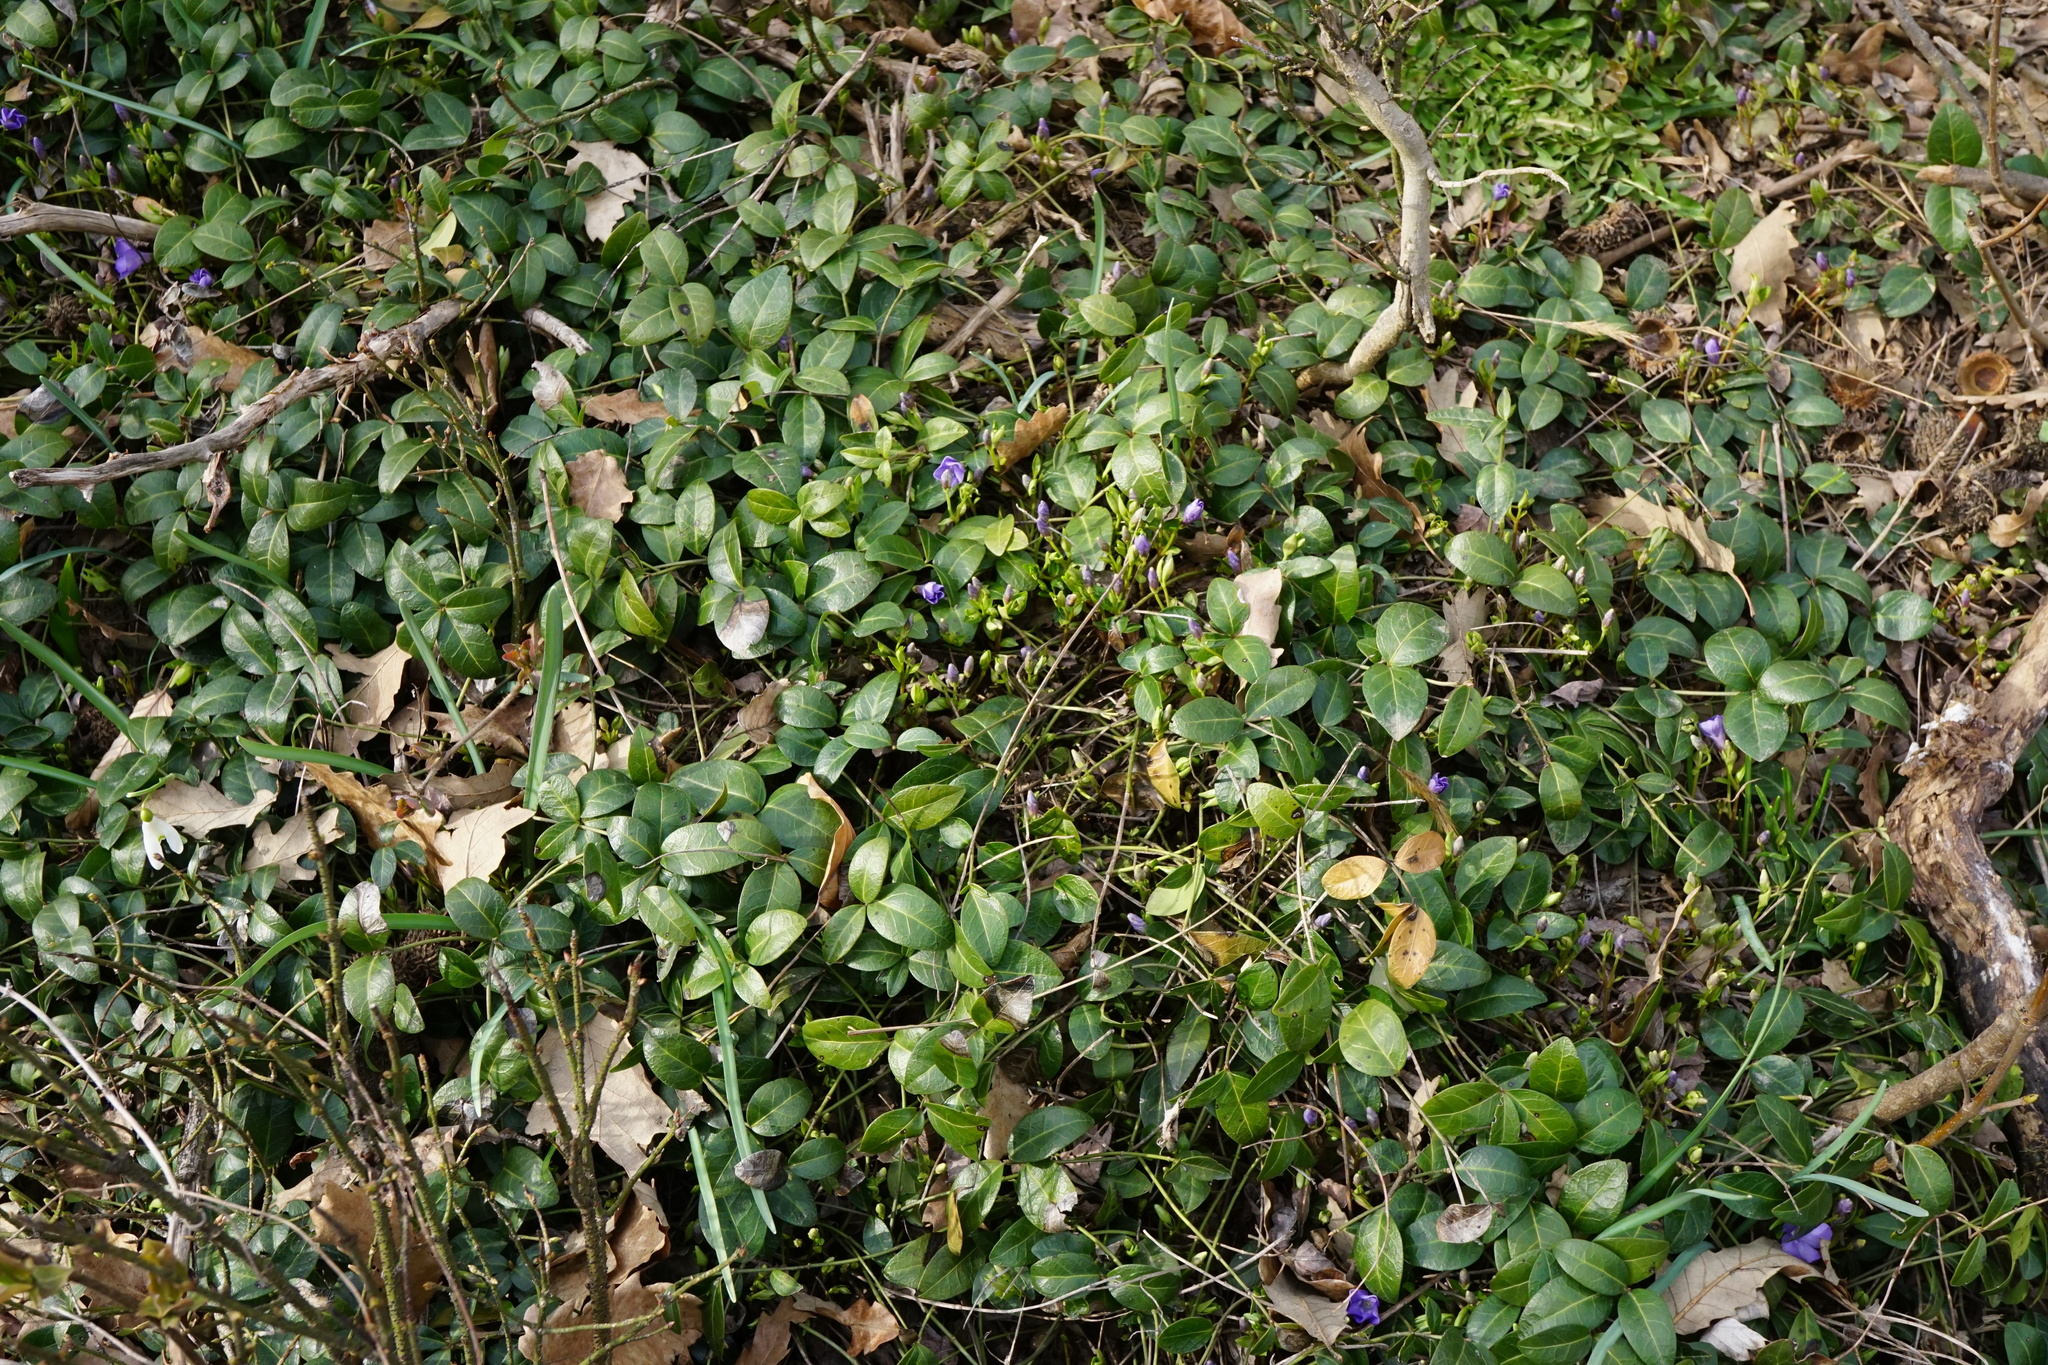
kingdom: Plantae
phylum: Tracheophyta
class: Magnoliopsida
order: Gentianales
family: Apocynaceae
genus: Vinca
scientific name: Vinca minor
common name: Lesser periwinkle
